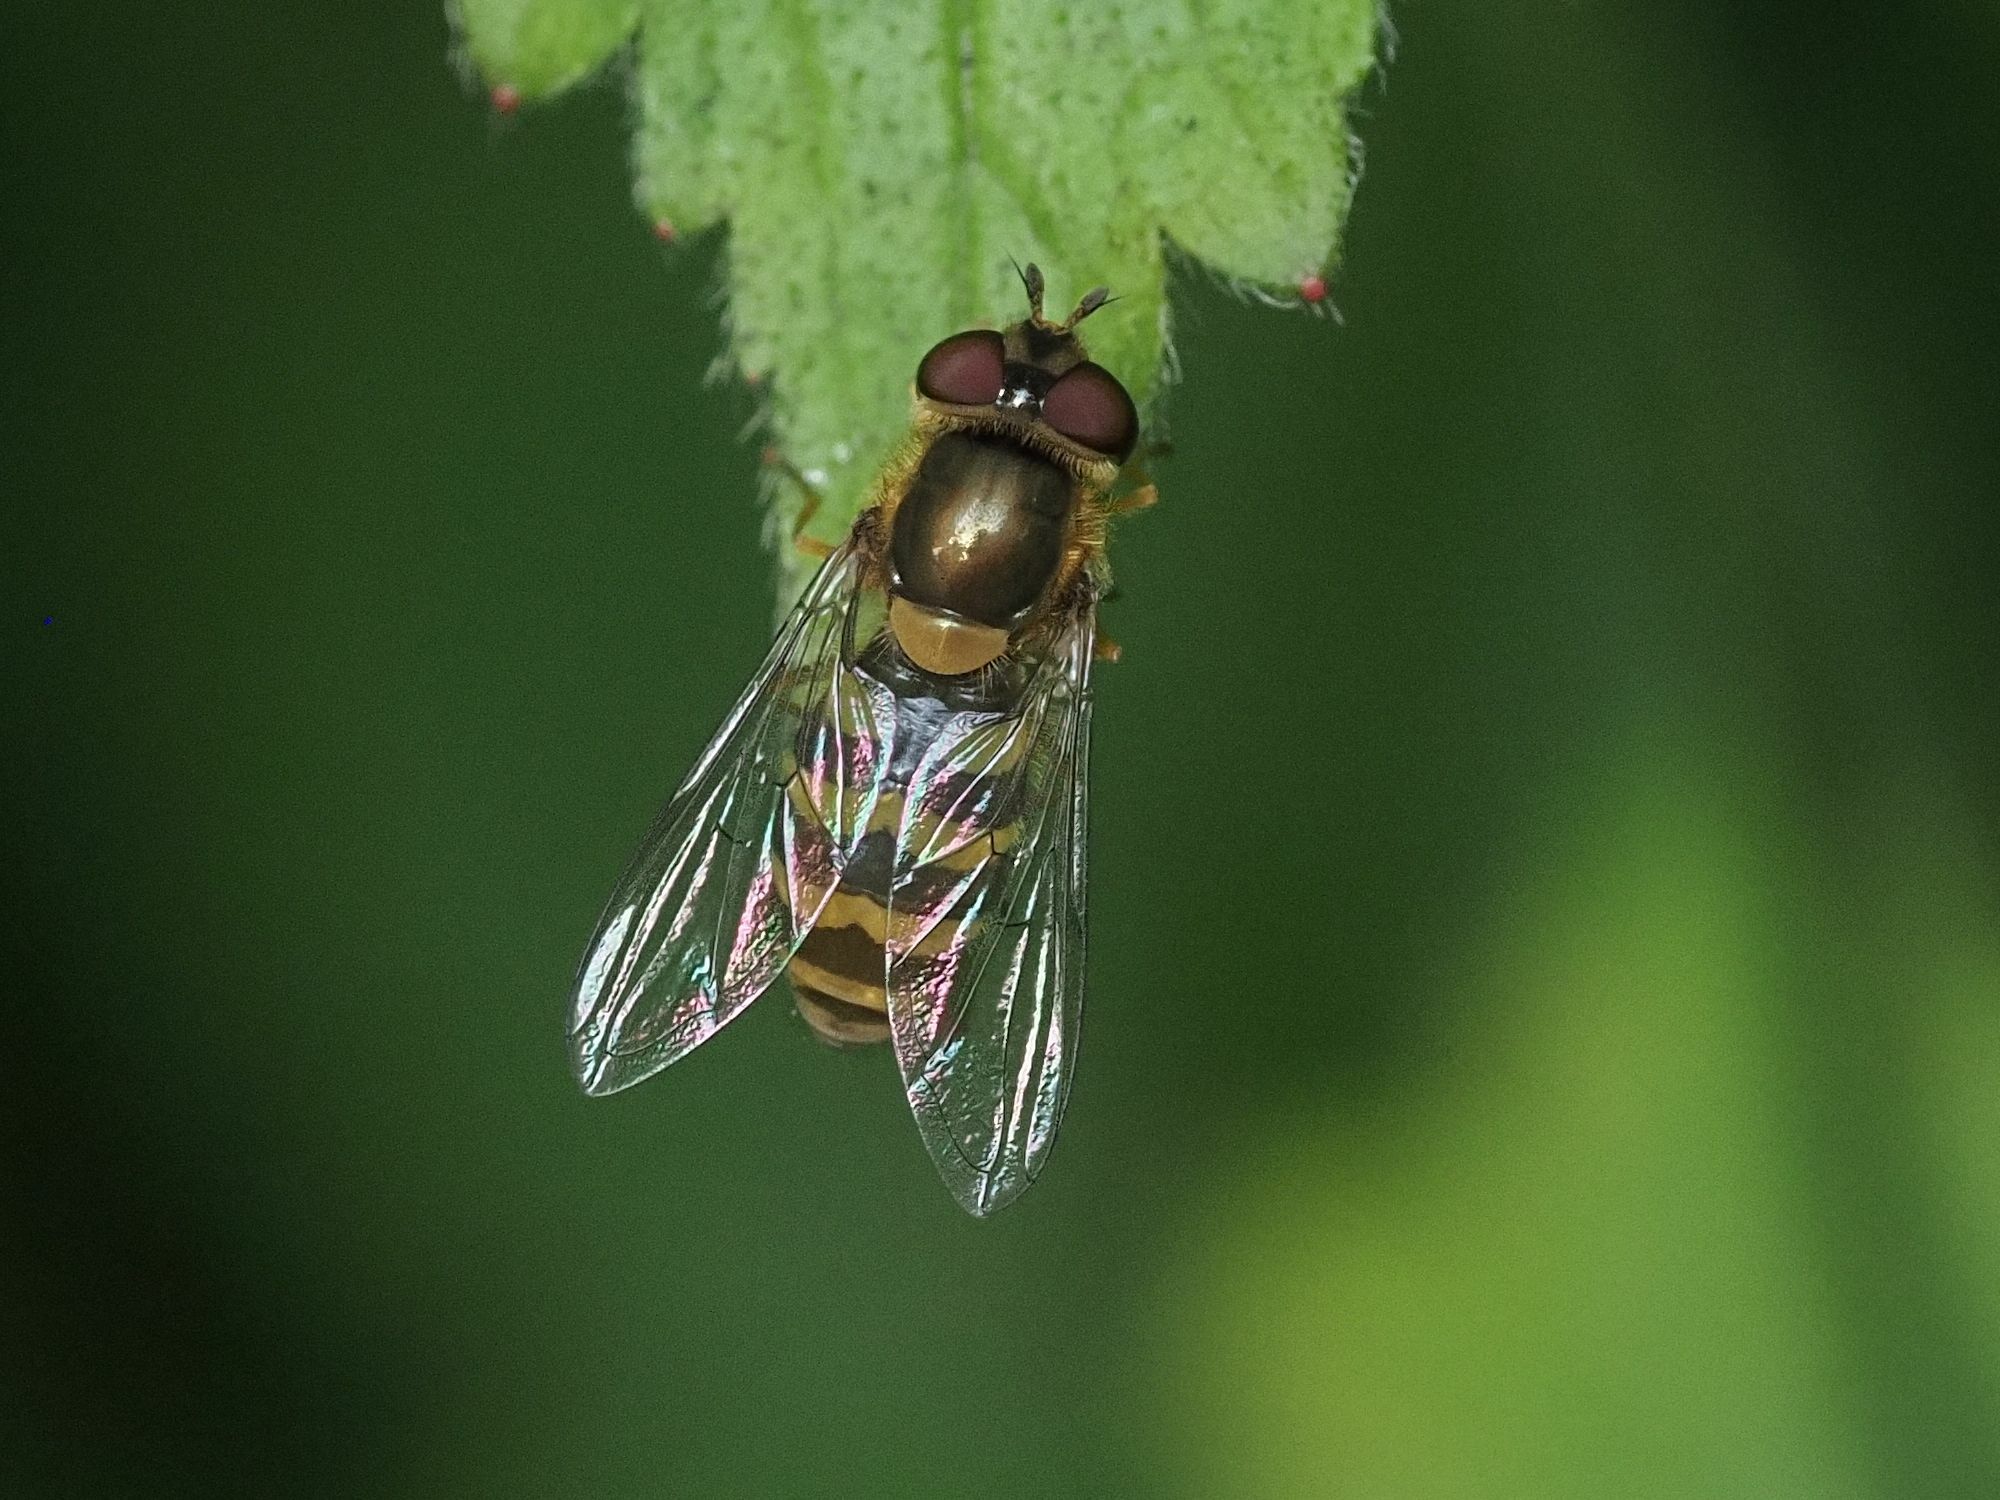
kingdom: Animalia
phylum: Arthropoda
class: Insecta
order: Diptera
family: Syrphidae
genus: Syrphus
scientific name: Syrphus
